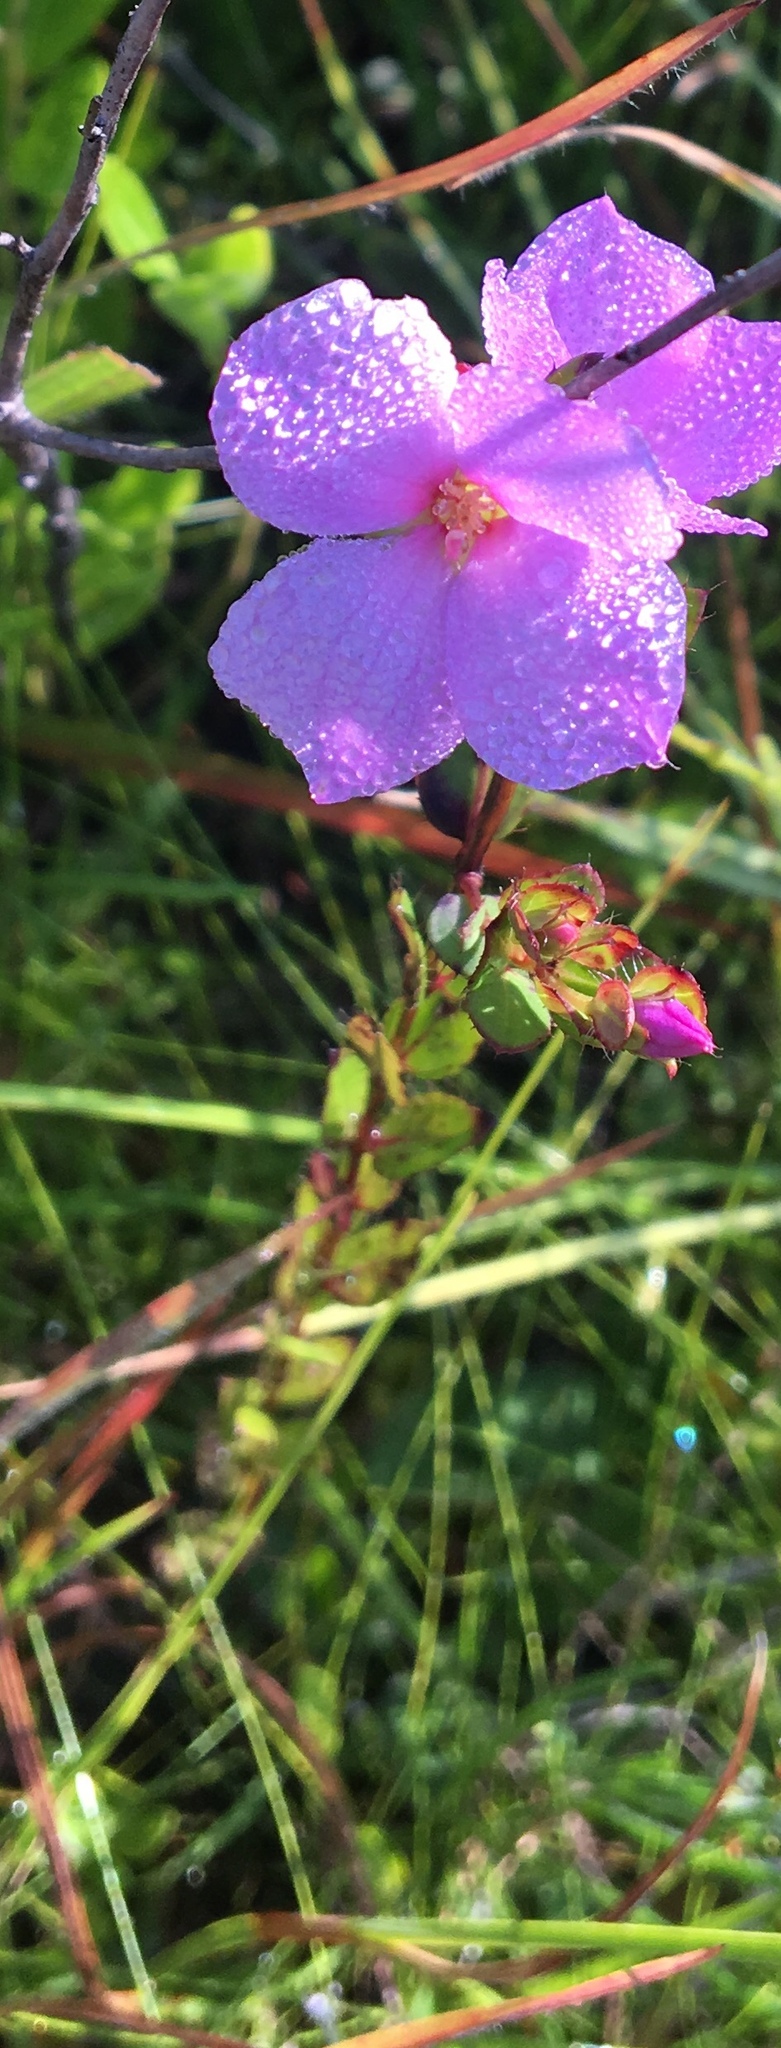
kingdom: Plantae
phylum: Tracheophyta
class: Magnoliopsida
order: Myrtales
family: Melastomataceae
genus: Rhexia
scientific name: Rhexia petiolata
